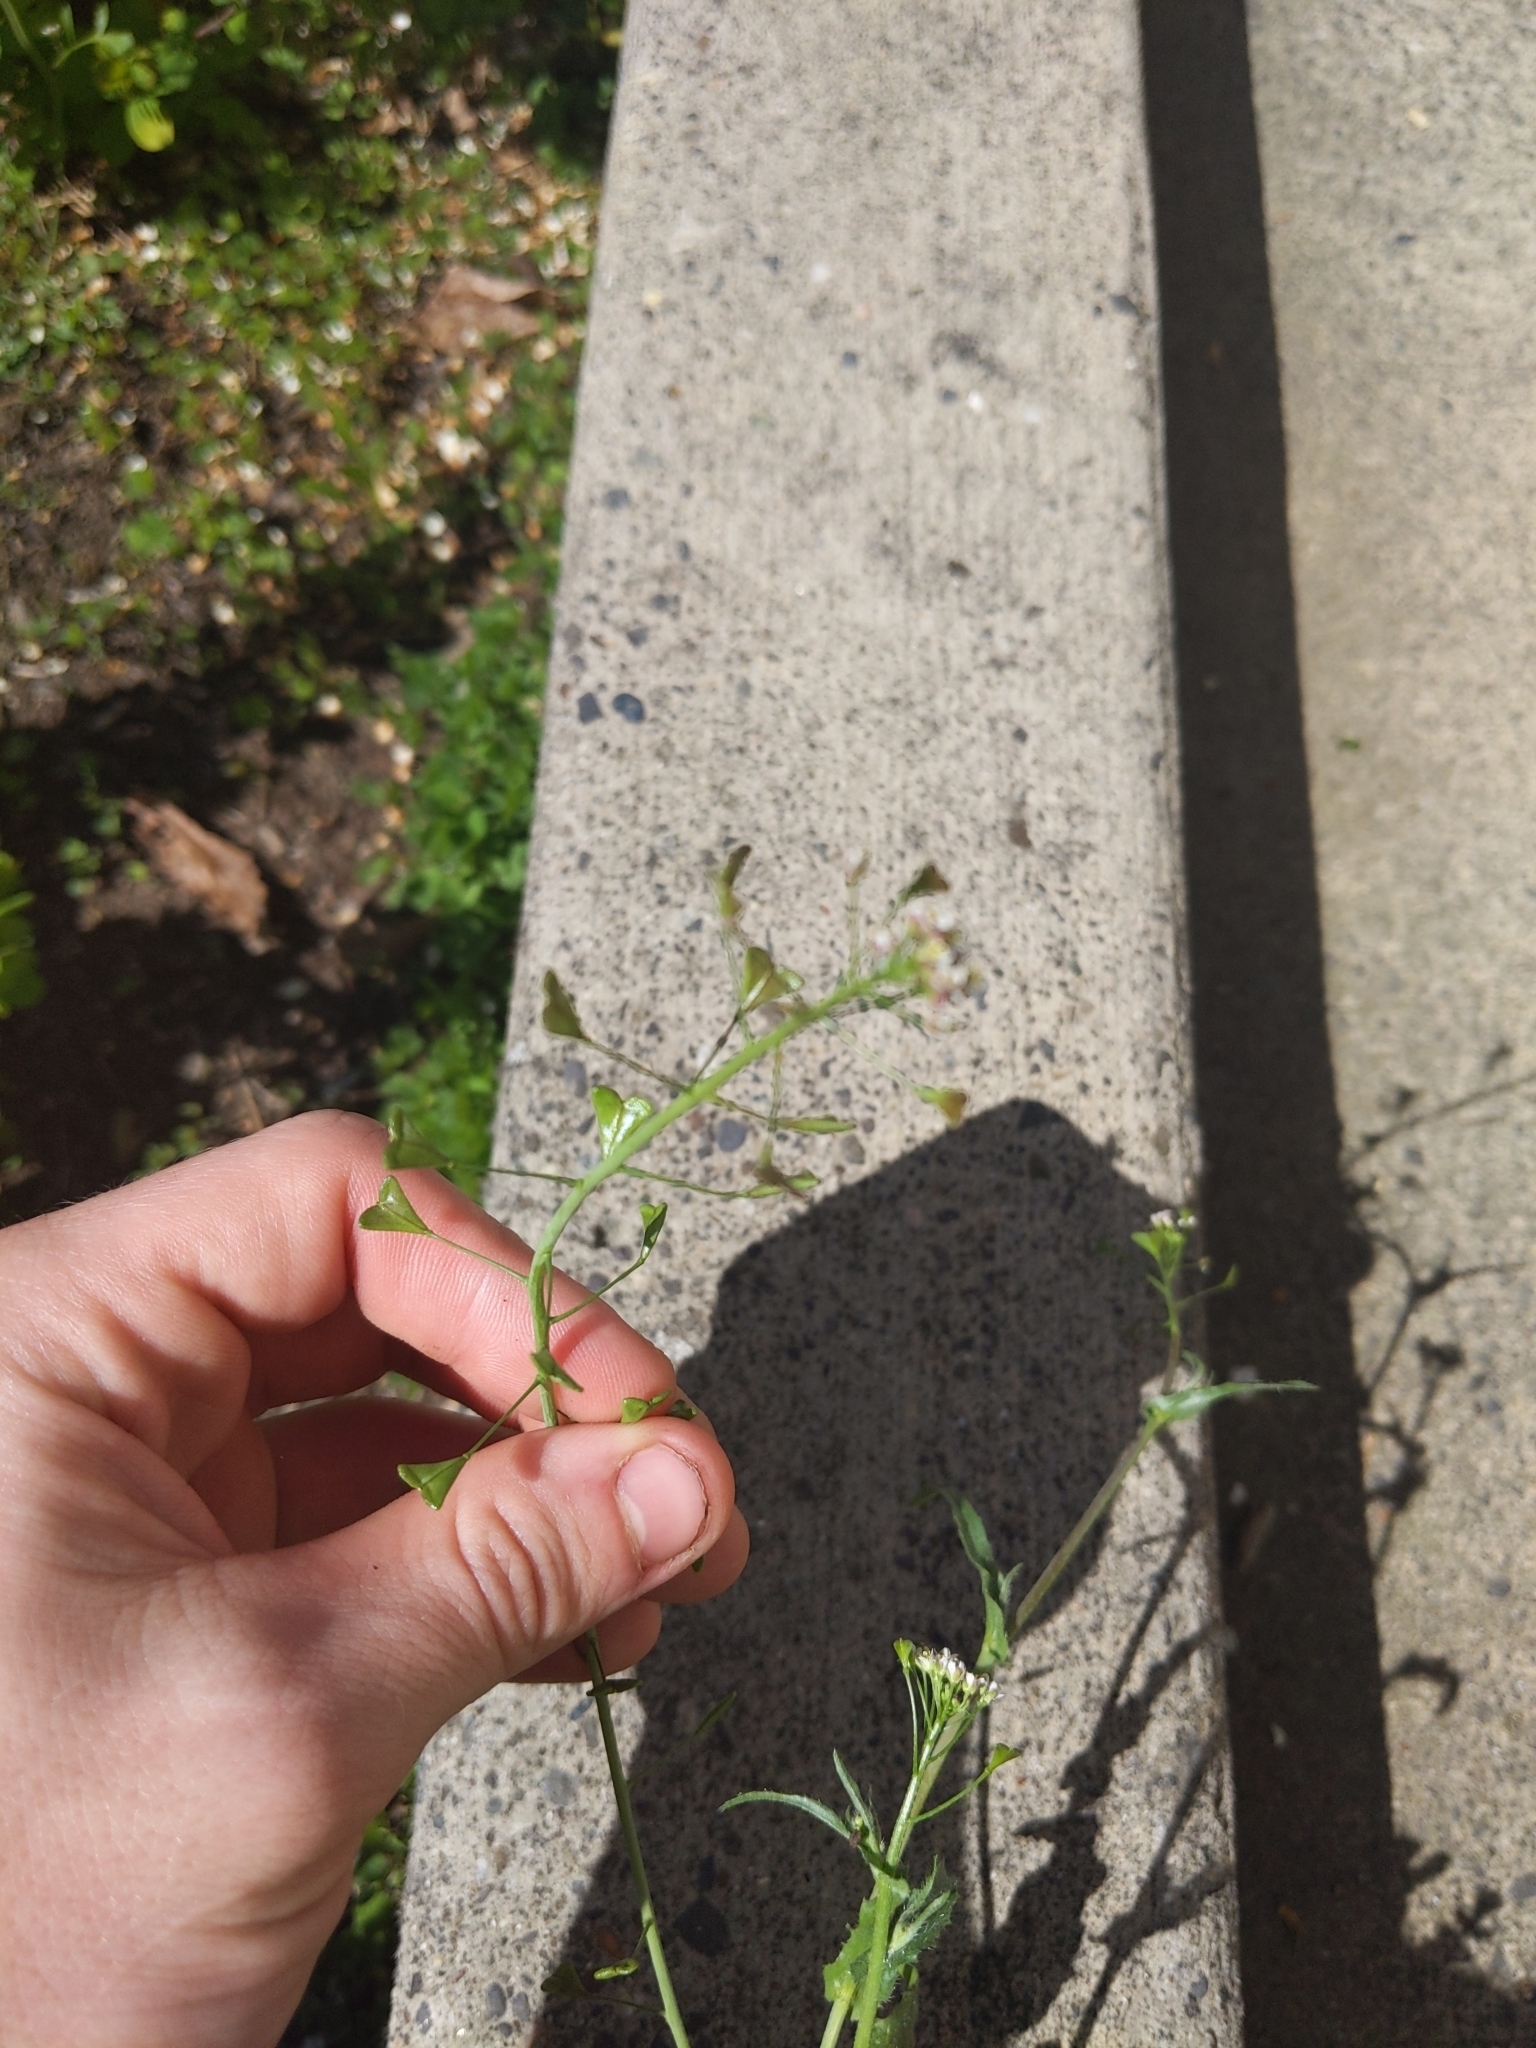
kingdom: Plantae
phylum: Tracheophyta
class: Magnoliopsida
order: Brassicales
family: Brassicaceae
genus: Capsella
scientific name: Capsella bursa-pastoris
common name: Shepherd's purse
